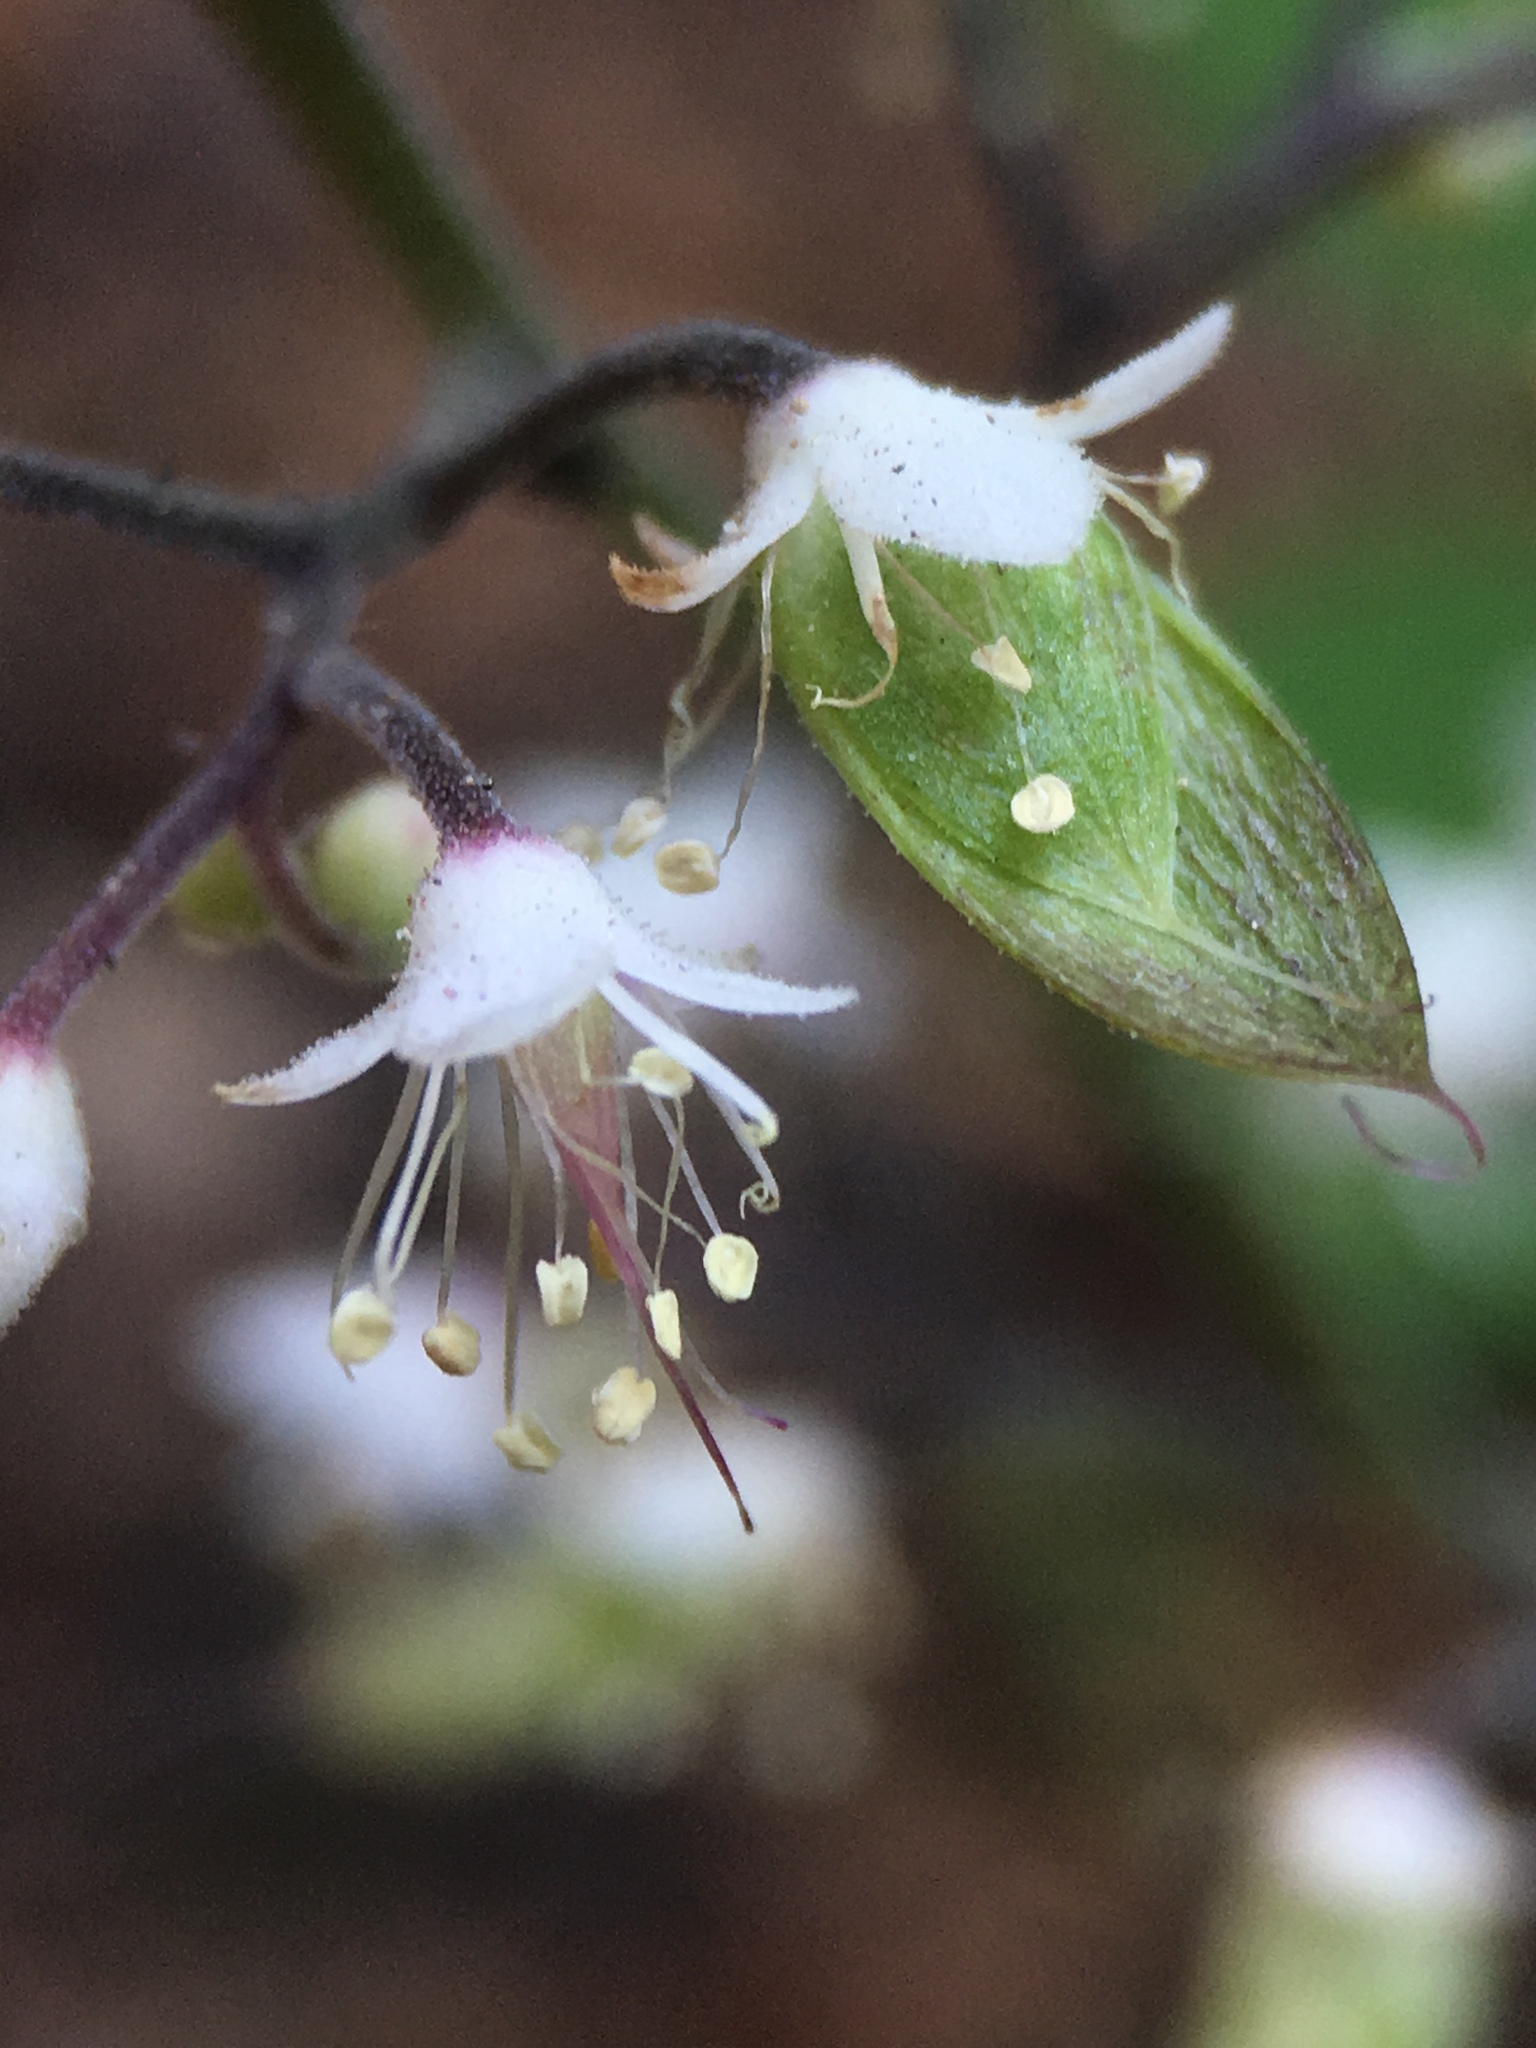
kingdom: Plantae
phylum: Tracheophyta
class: Magnoliopsida
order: Saxifragales
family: Saxifragaceae
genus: Tiarella
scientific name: Tiarella trifoliata
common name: Sugar-scoop
